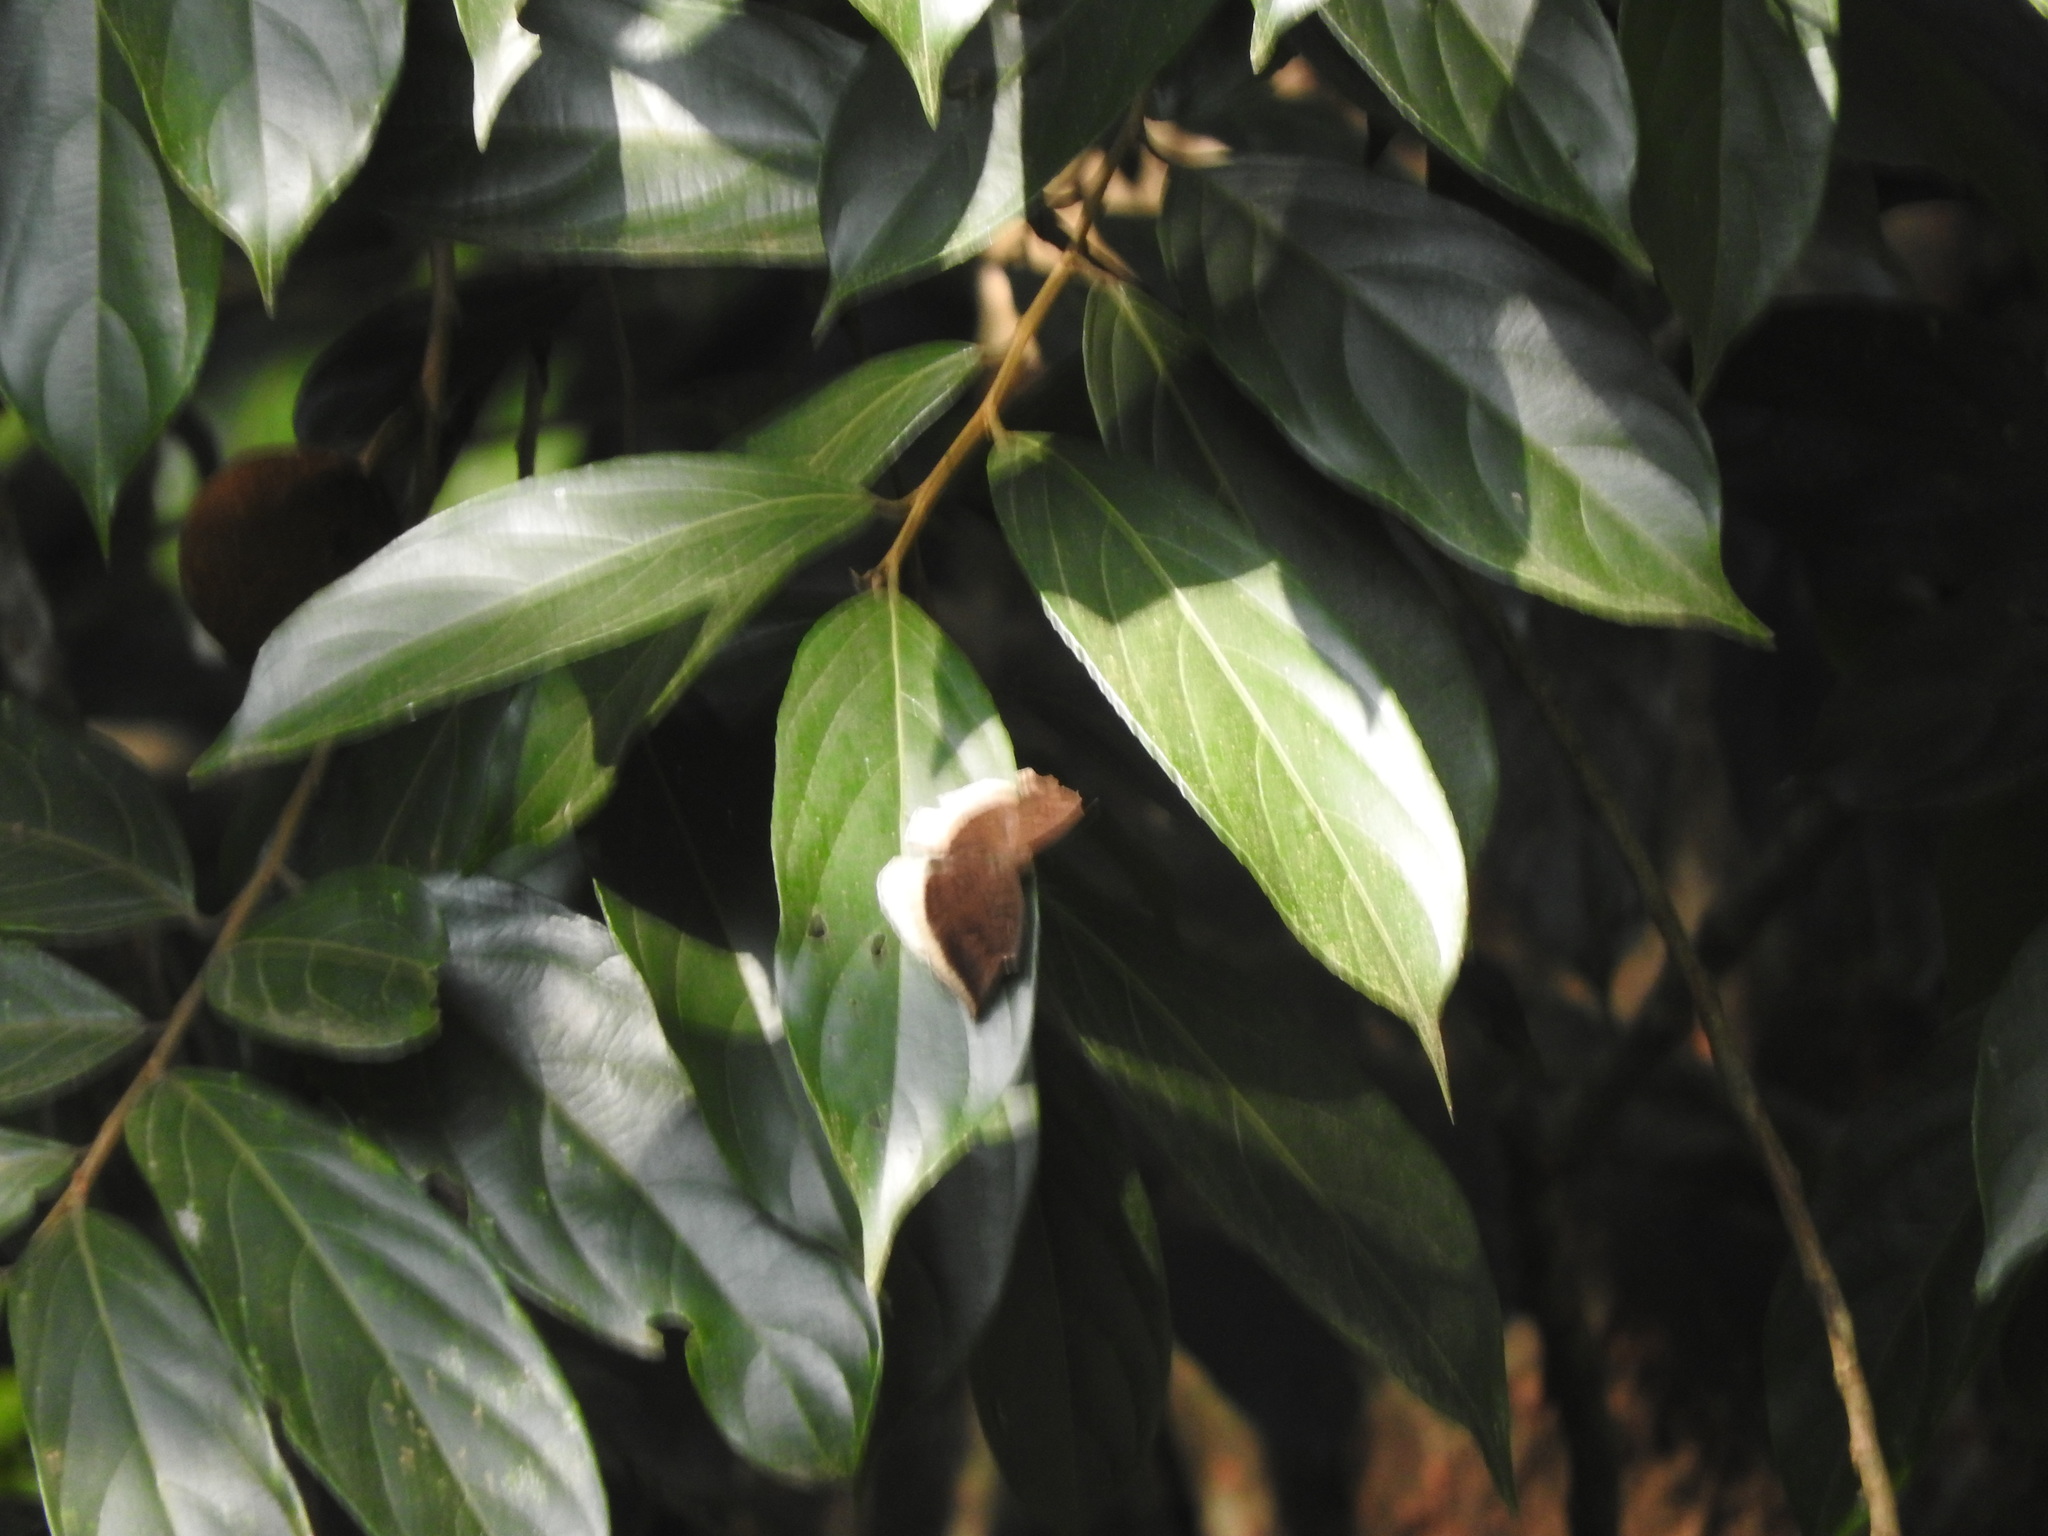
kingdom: Animalia
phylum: Arthropoda
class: Insecta
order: Lepidoptera
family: Nymphalidae
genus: Tanaecia
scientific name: Tanaecia lepidea
